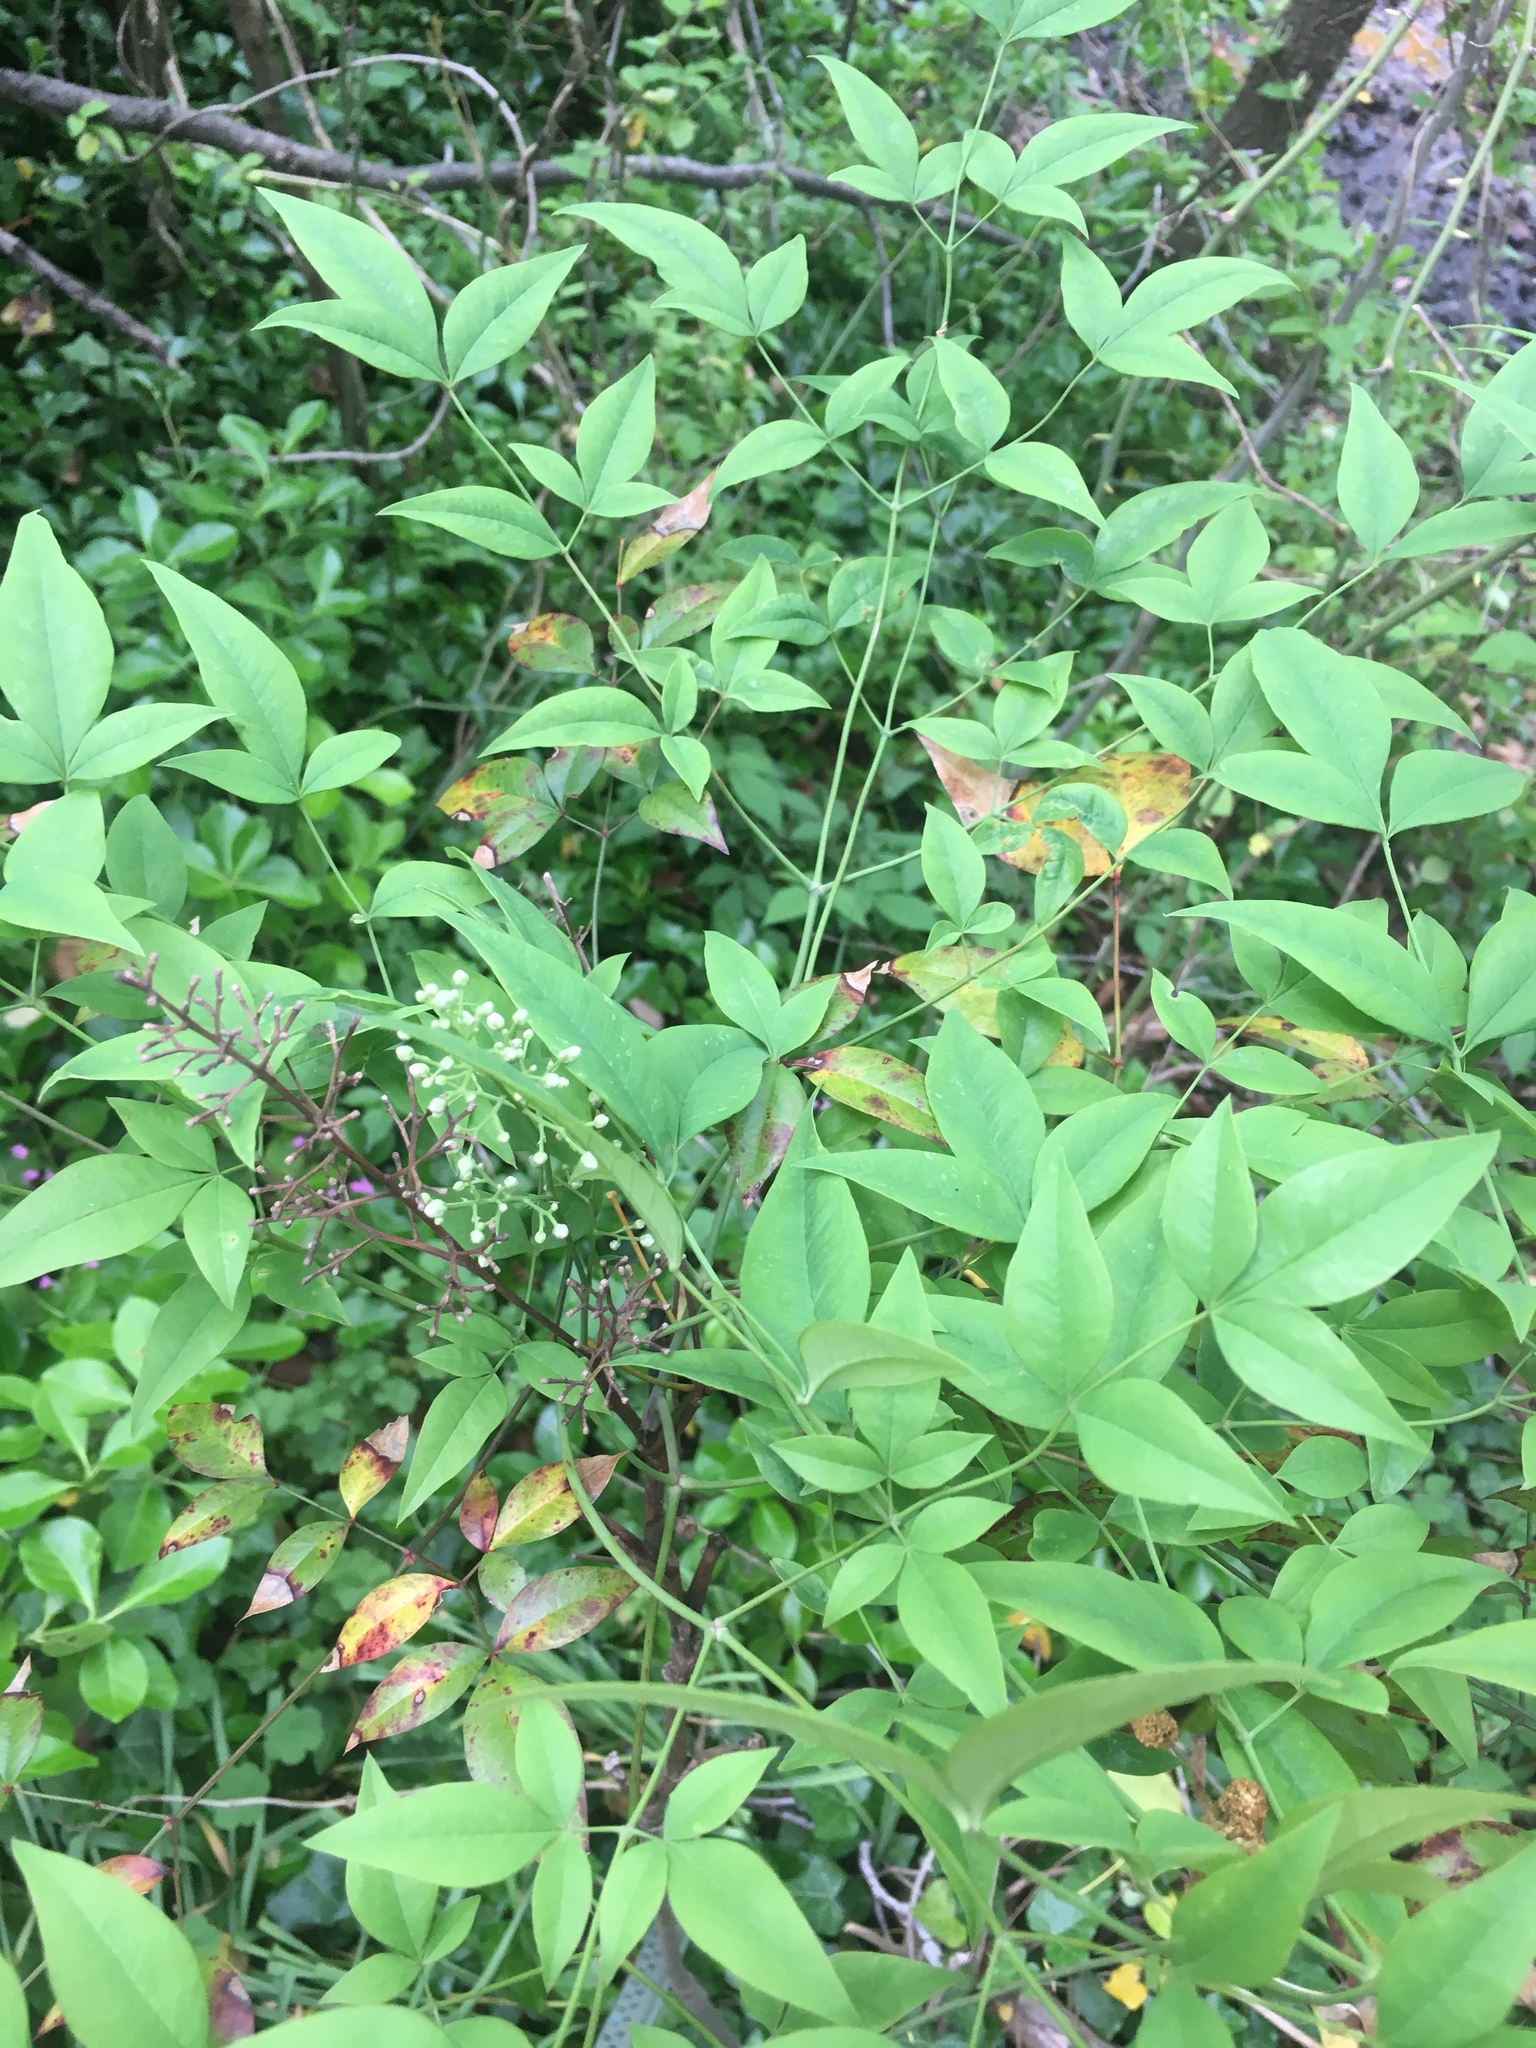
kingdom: Plantae
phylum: Tracheophyta
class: Magnoliopsida
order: Ranunculales
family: Berberidaceae
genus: Nandina
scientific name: Nandina domestica
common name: Sacred bamboo
